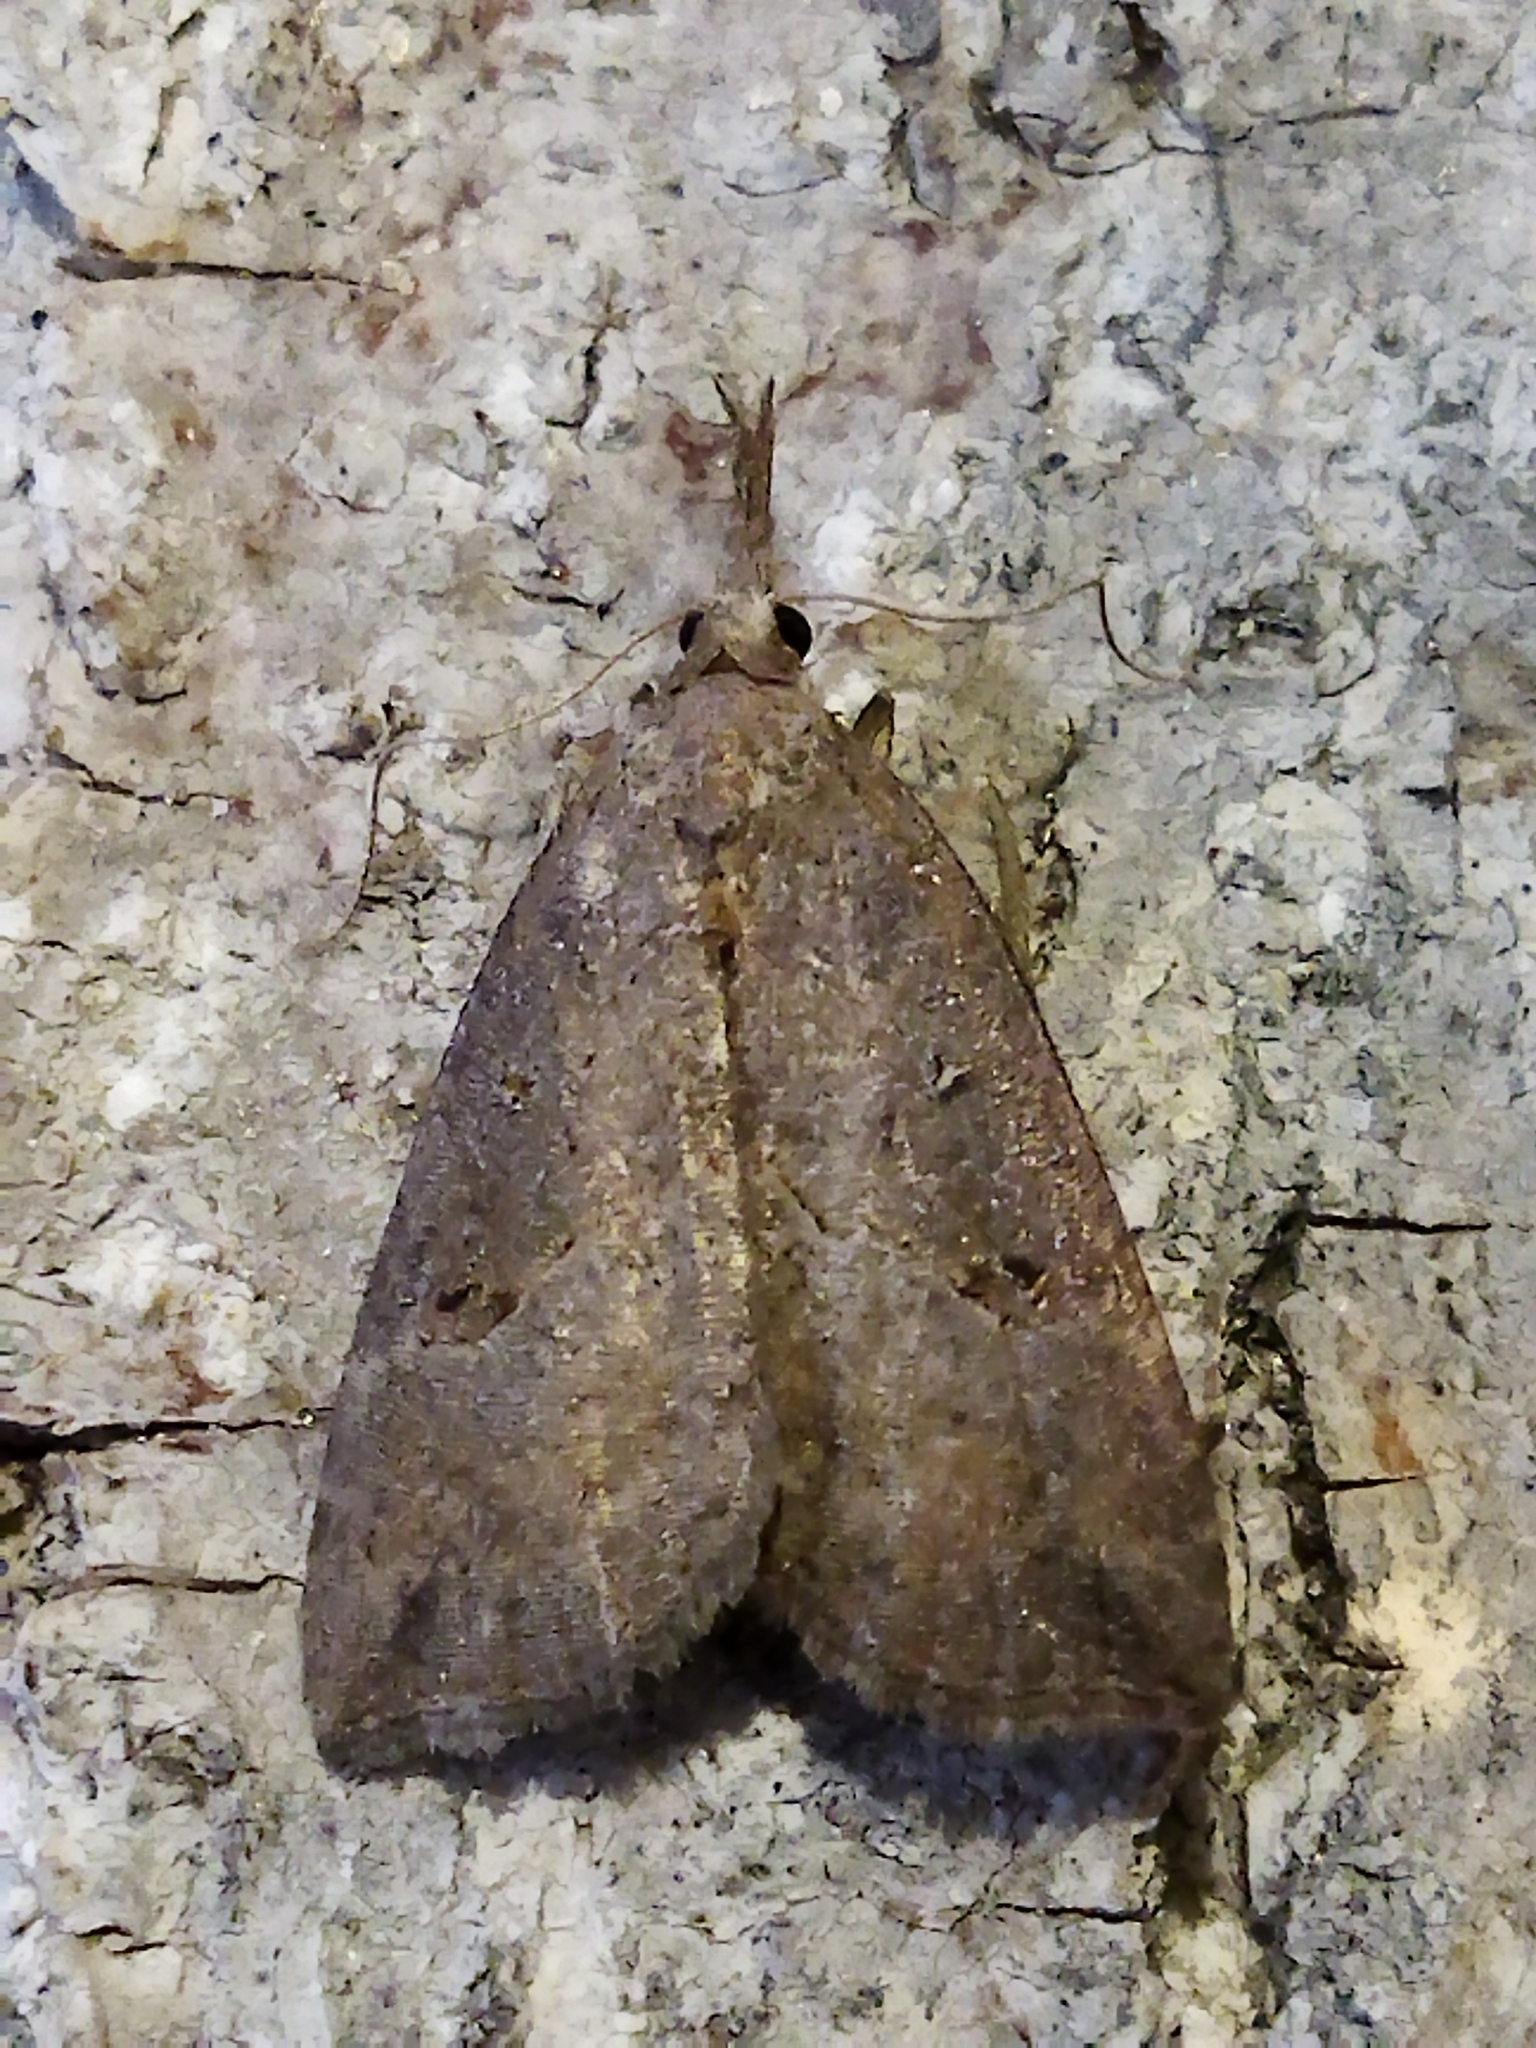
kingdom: Animalia
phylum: Arthropoda
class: Insecta
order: Lepidoptera
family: Erebidae
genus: Hypena
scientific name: Hypena rostralis
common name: Buttoned snout
